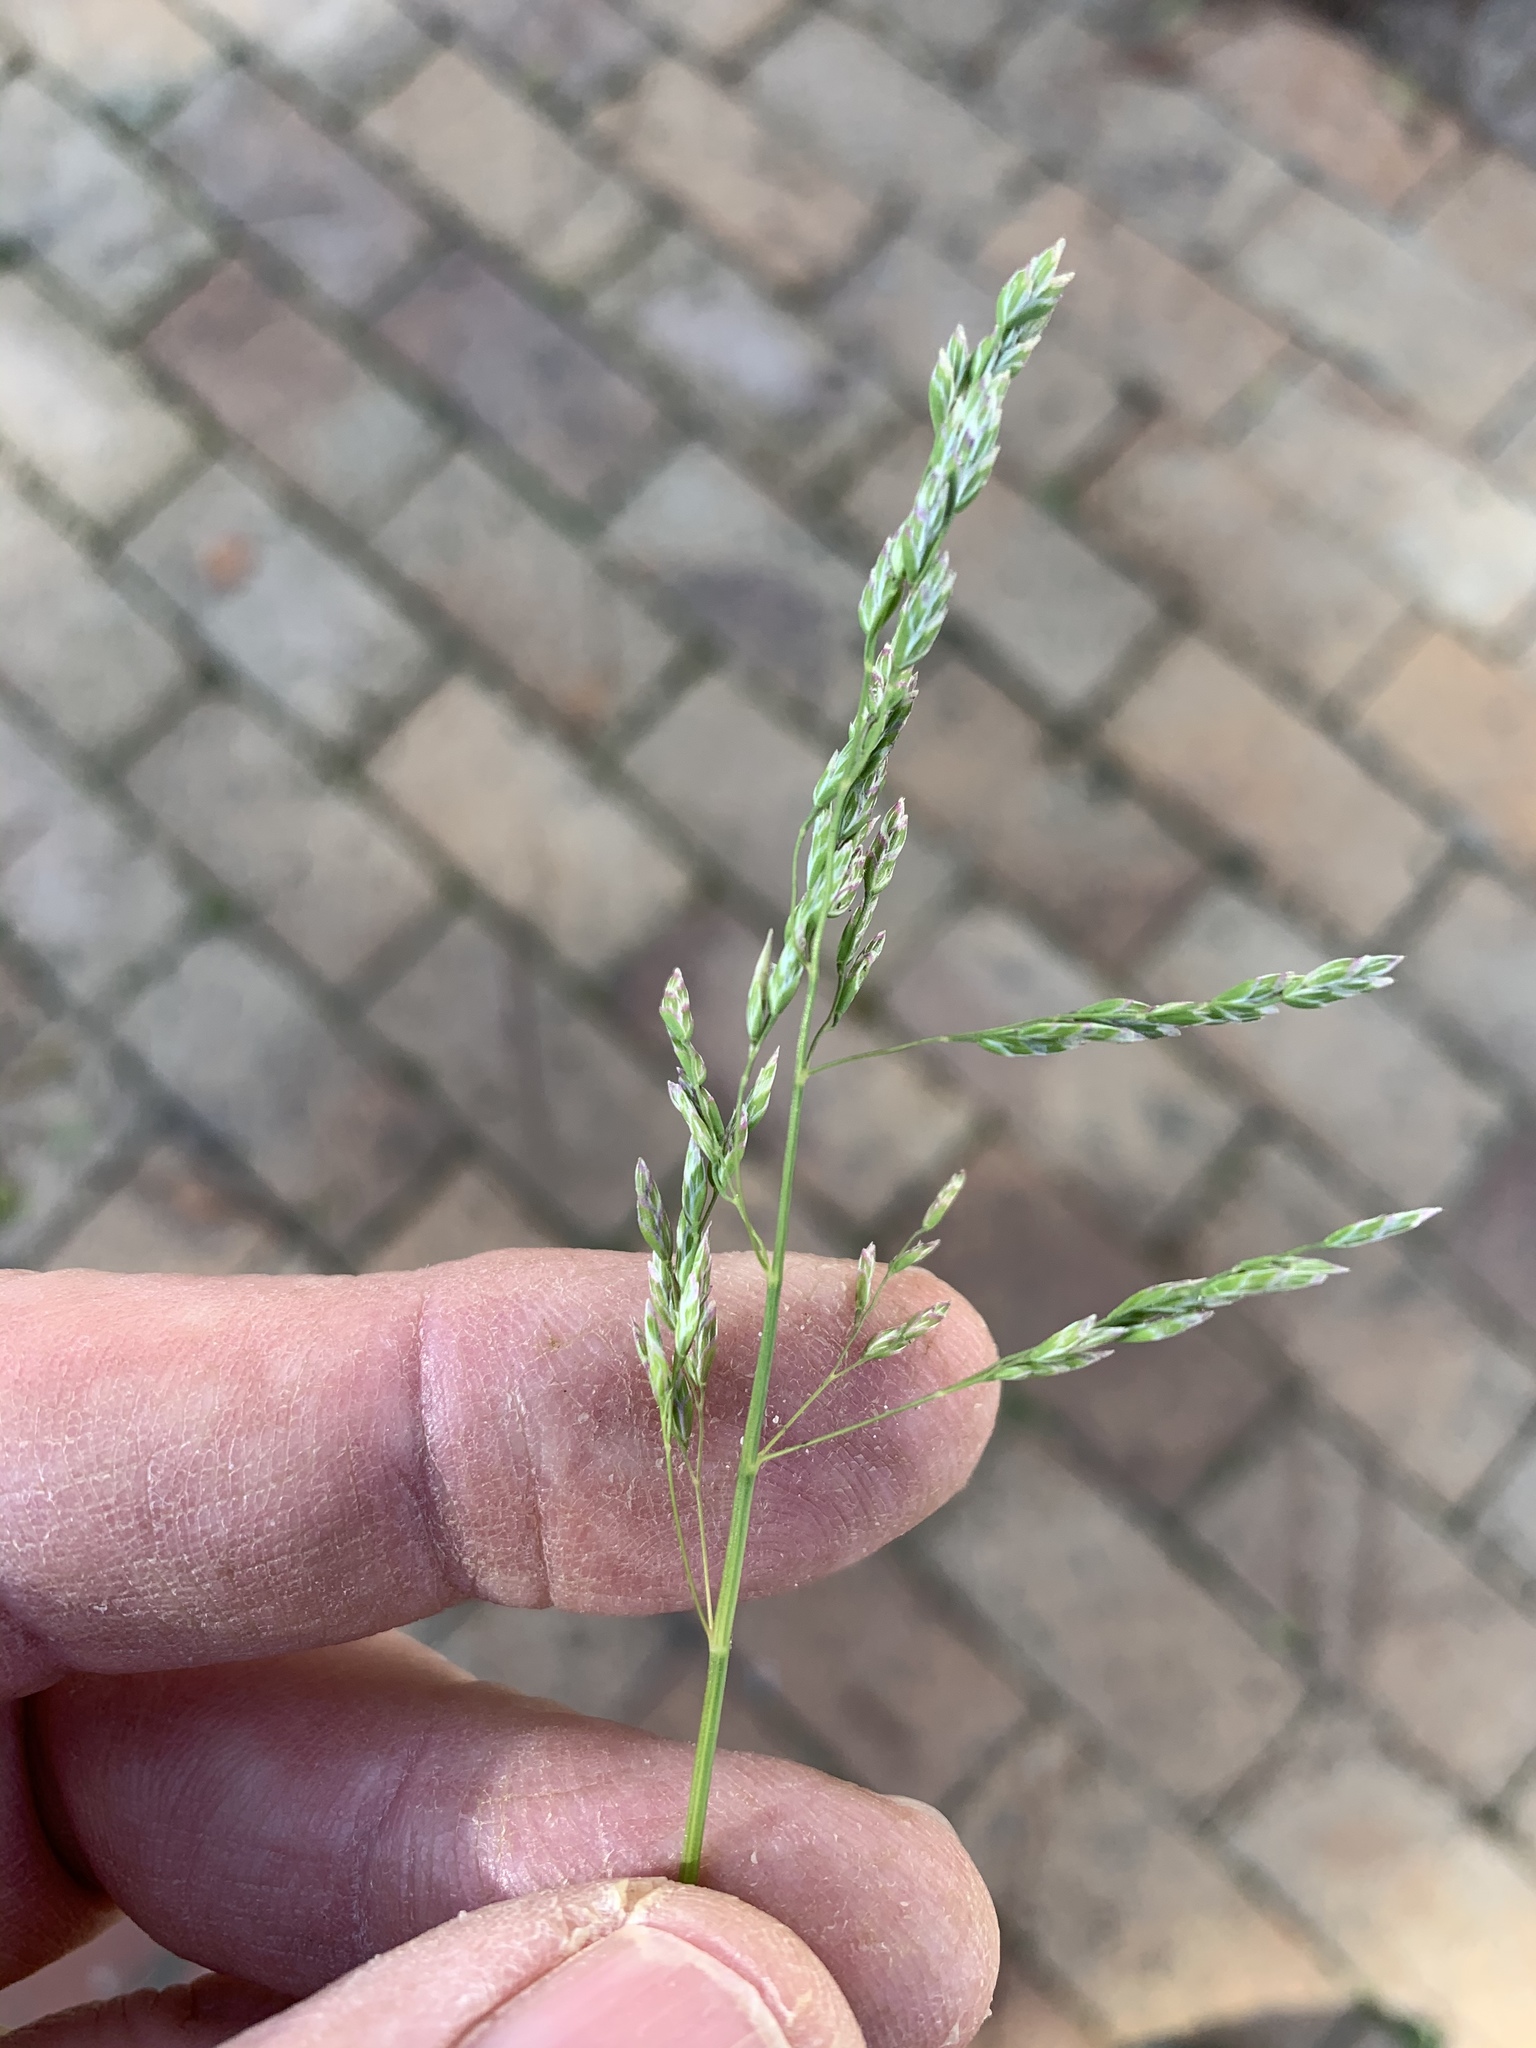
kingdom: Plantae
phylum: Tracheophyta
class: Liliopsida
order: Poales
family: Poaceae
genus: Poa
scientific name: Poa annua
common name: Annual bluegrass
